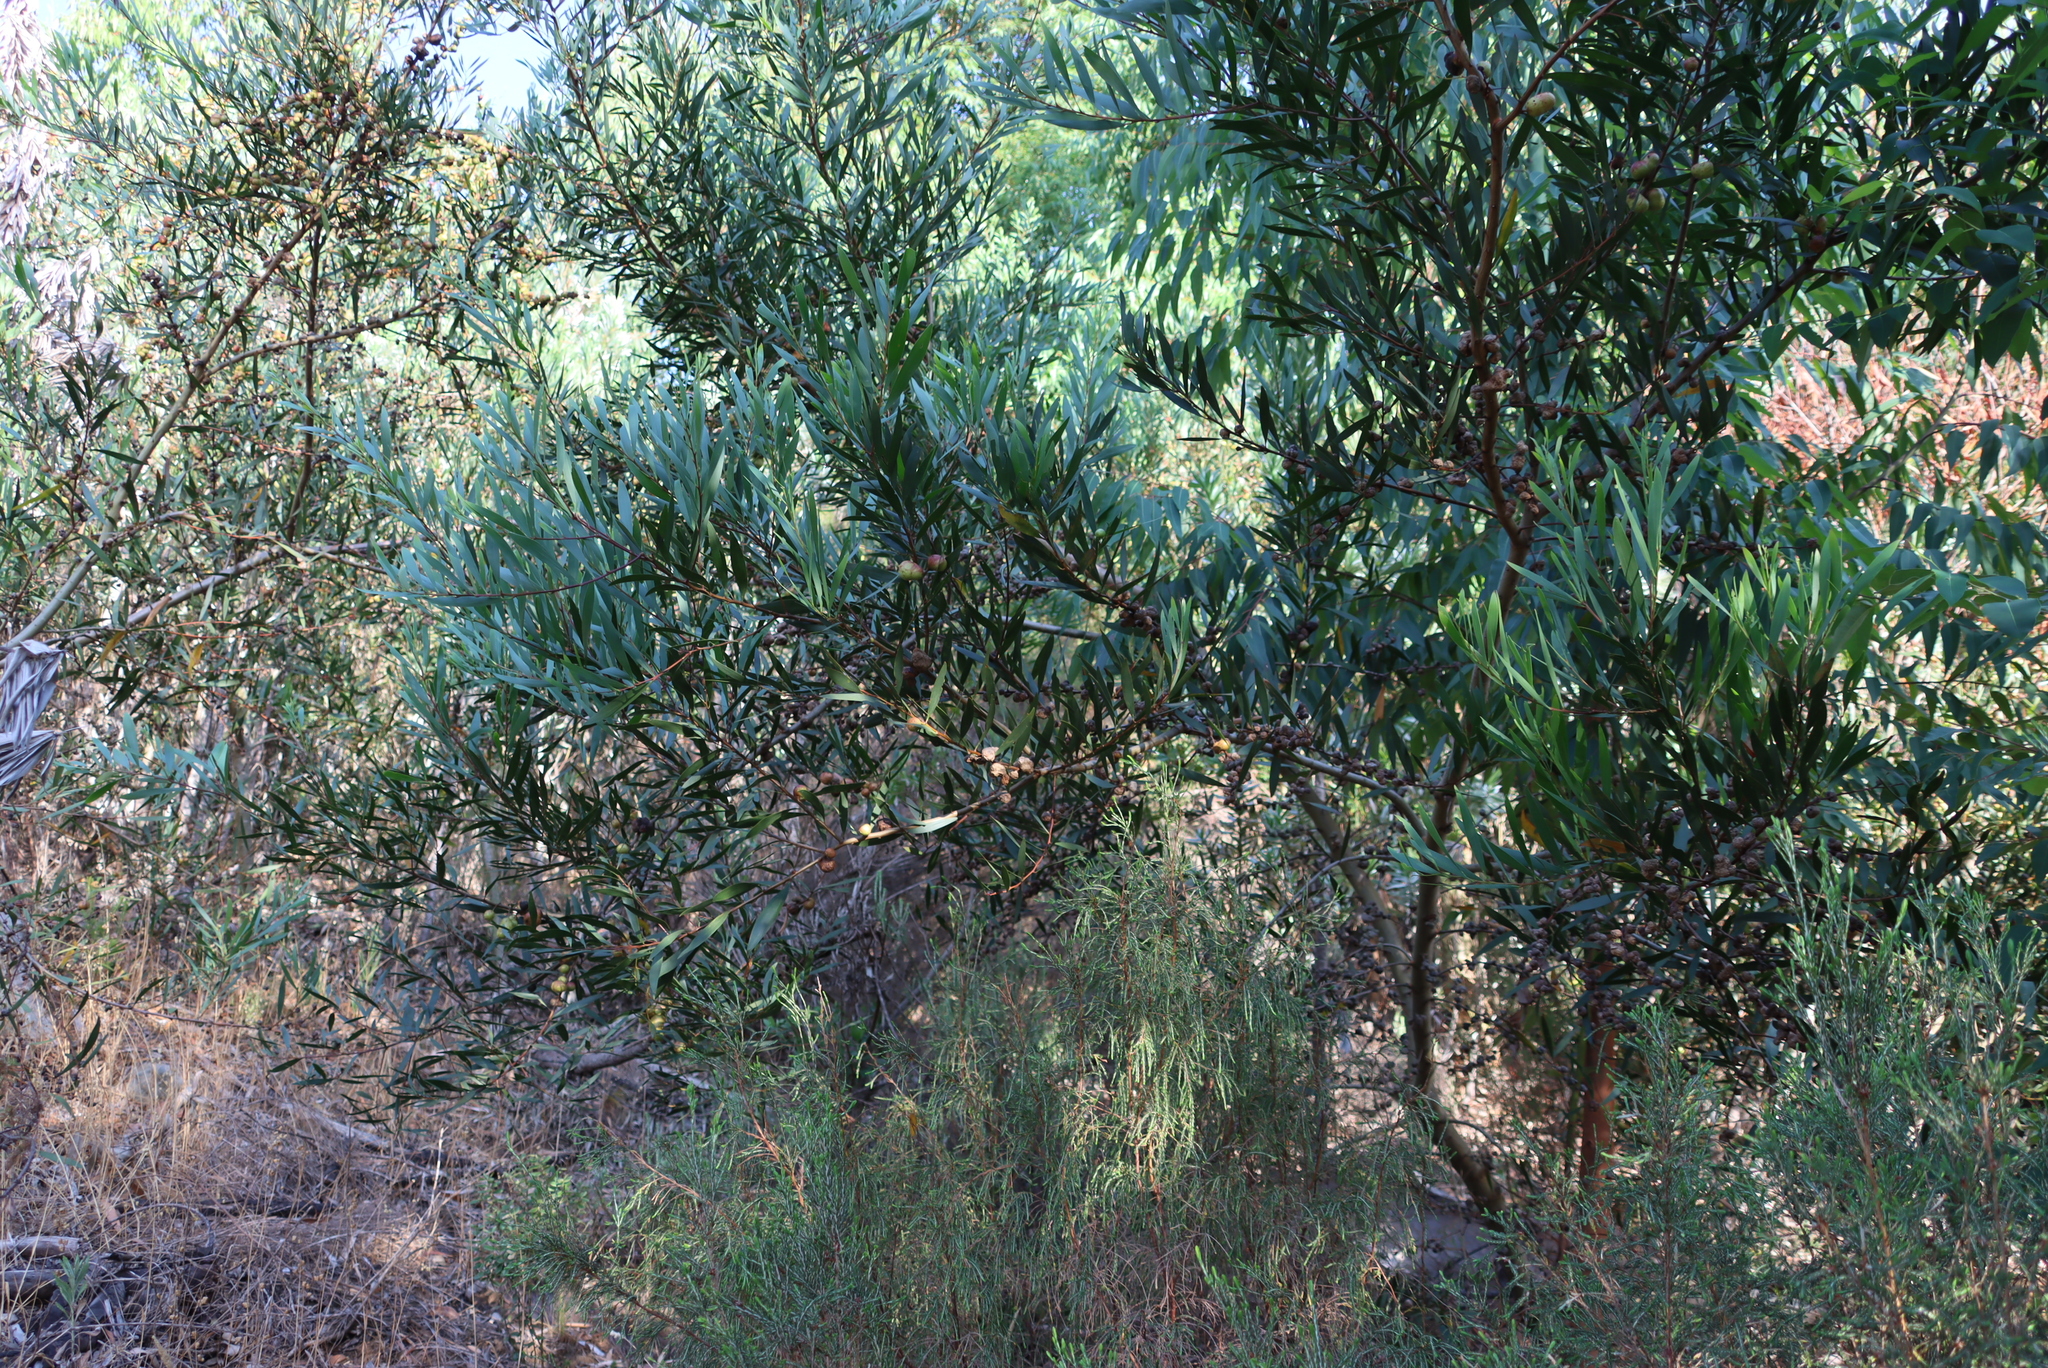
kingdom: Plantae
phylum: Tracheophyta
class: Magnoliopsida
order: Fabales
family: Fabaceae
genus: Acacia
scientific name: Acacia longifolia
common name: Sydney golden wattle
